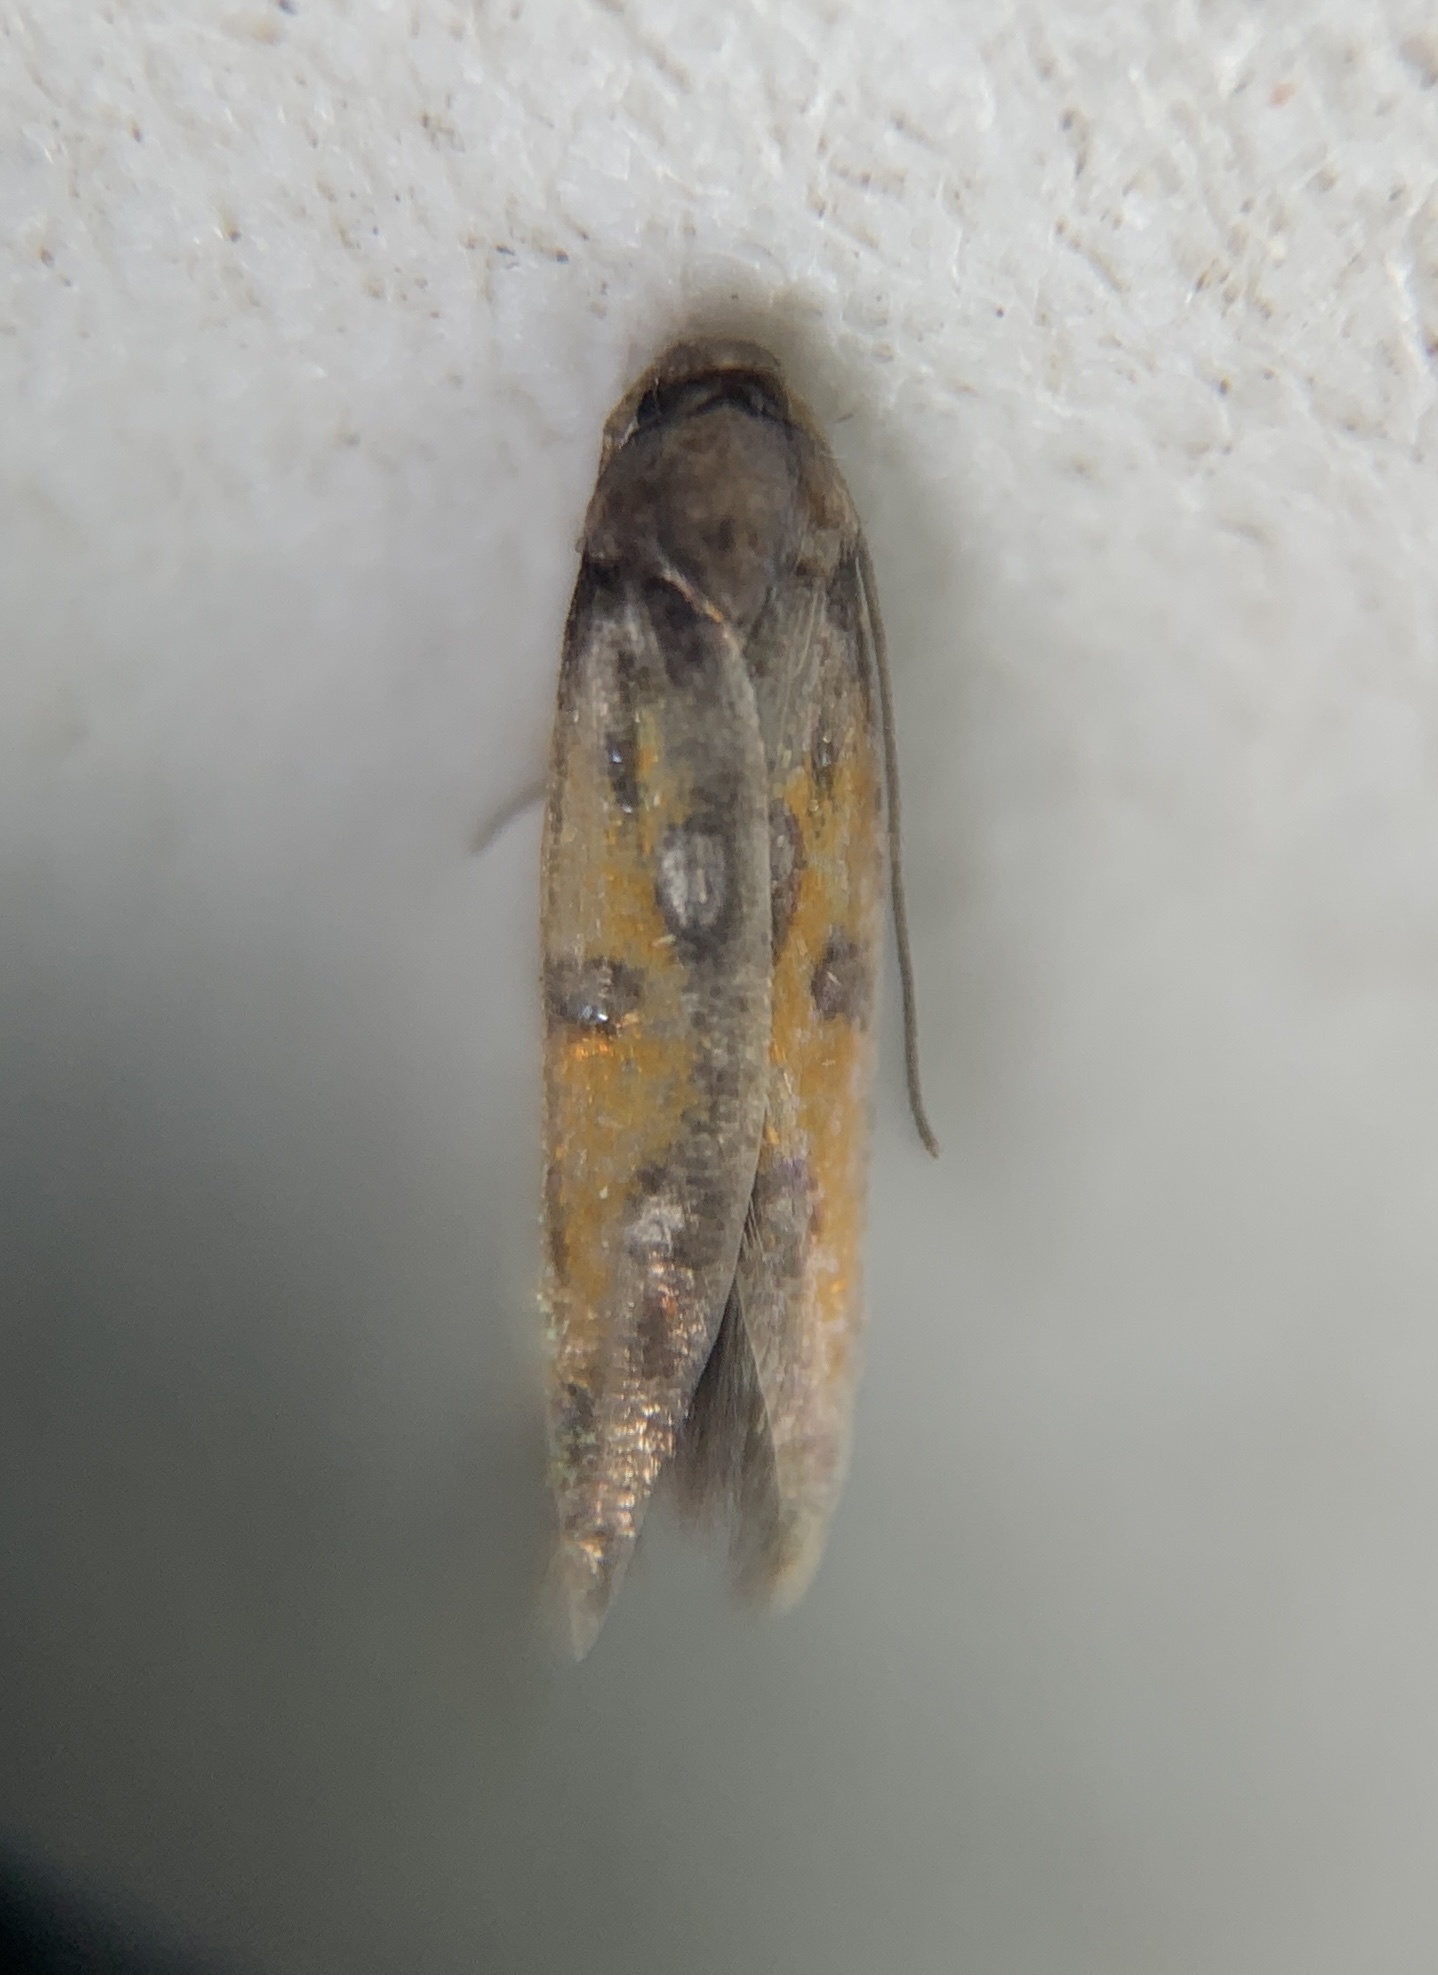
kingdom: Animalia
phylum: Arthropoda
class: Insecta
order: Lepidoptera
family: Elachistidae
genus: Chrysoclista
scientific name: Chrysoclista linneela
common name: Lime cosmet
